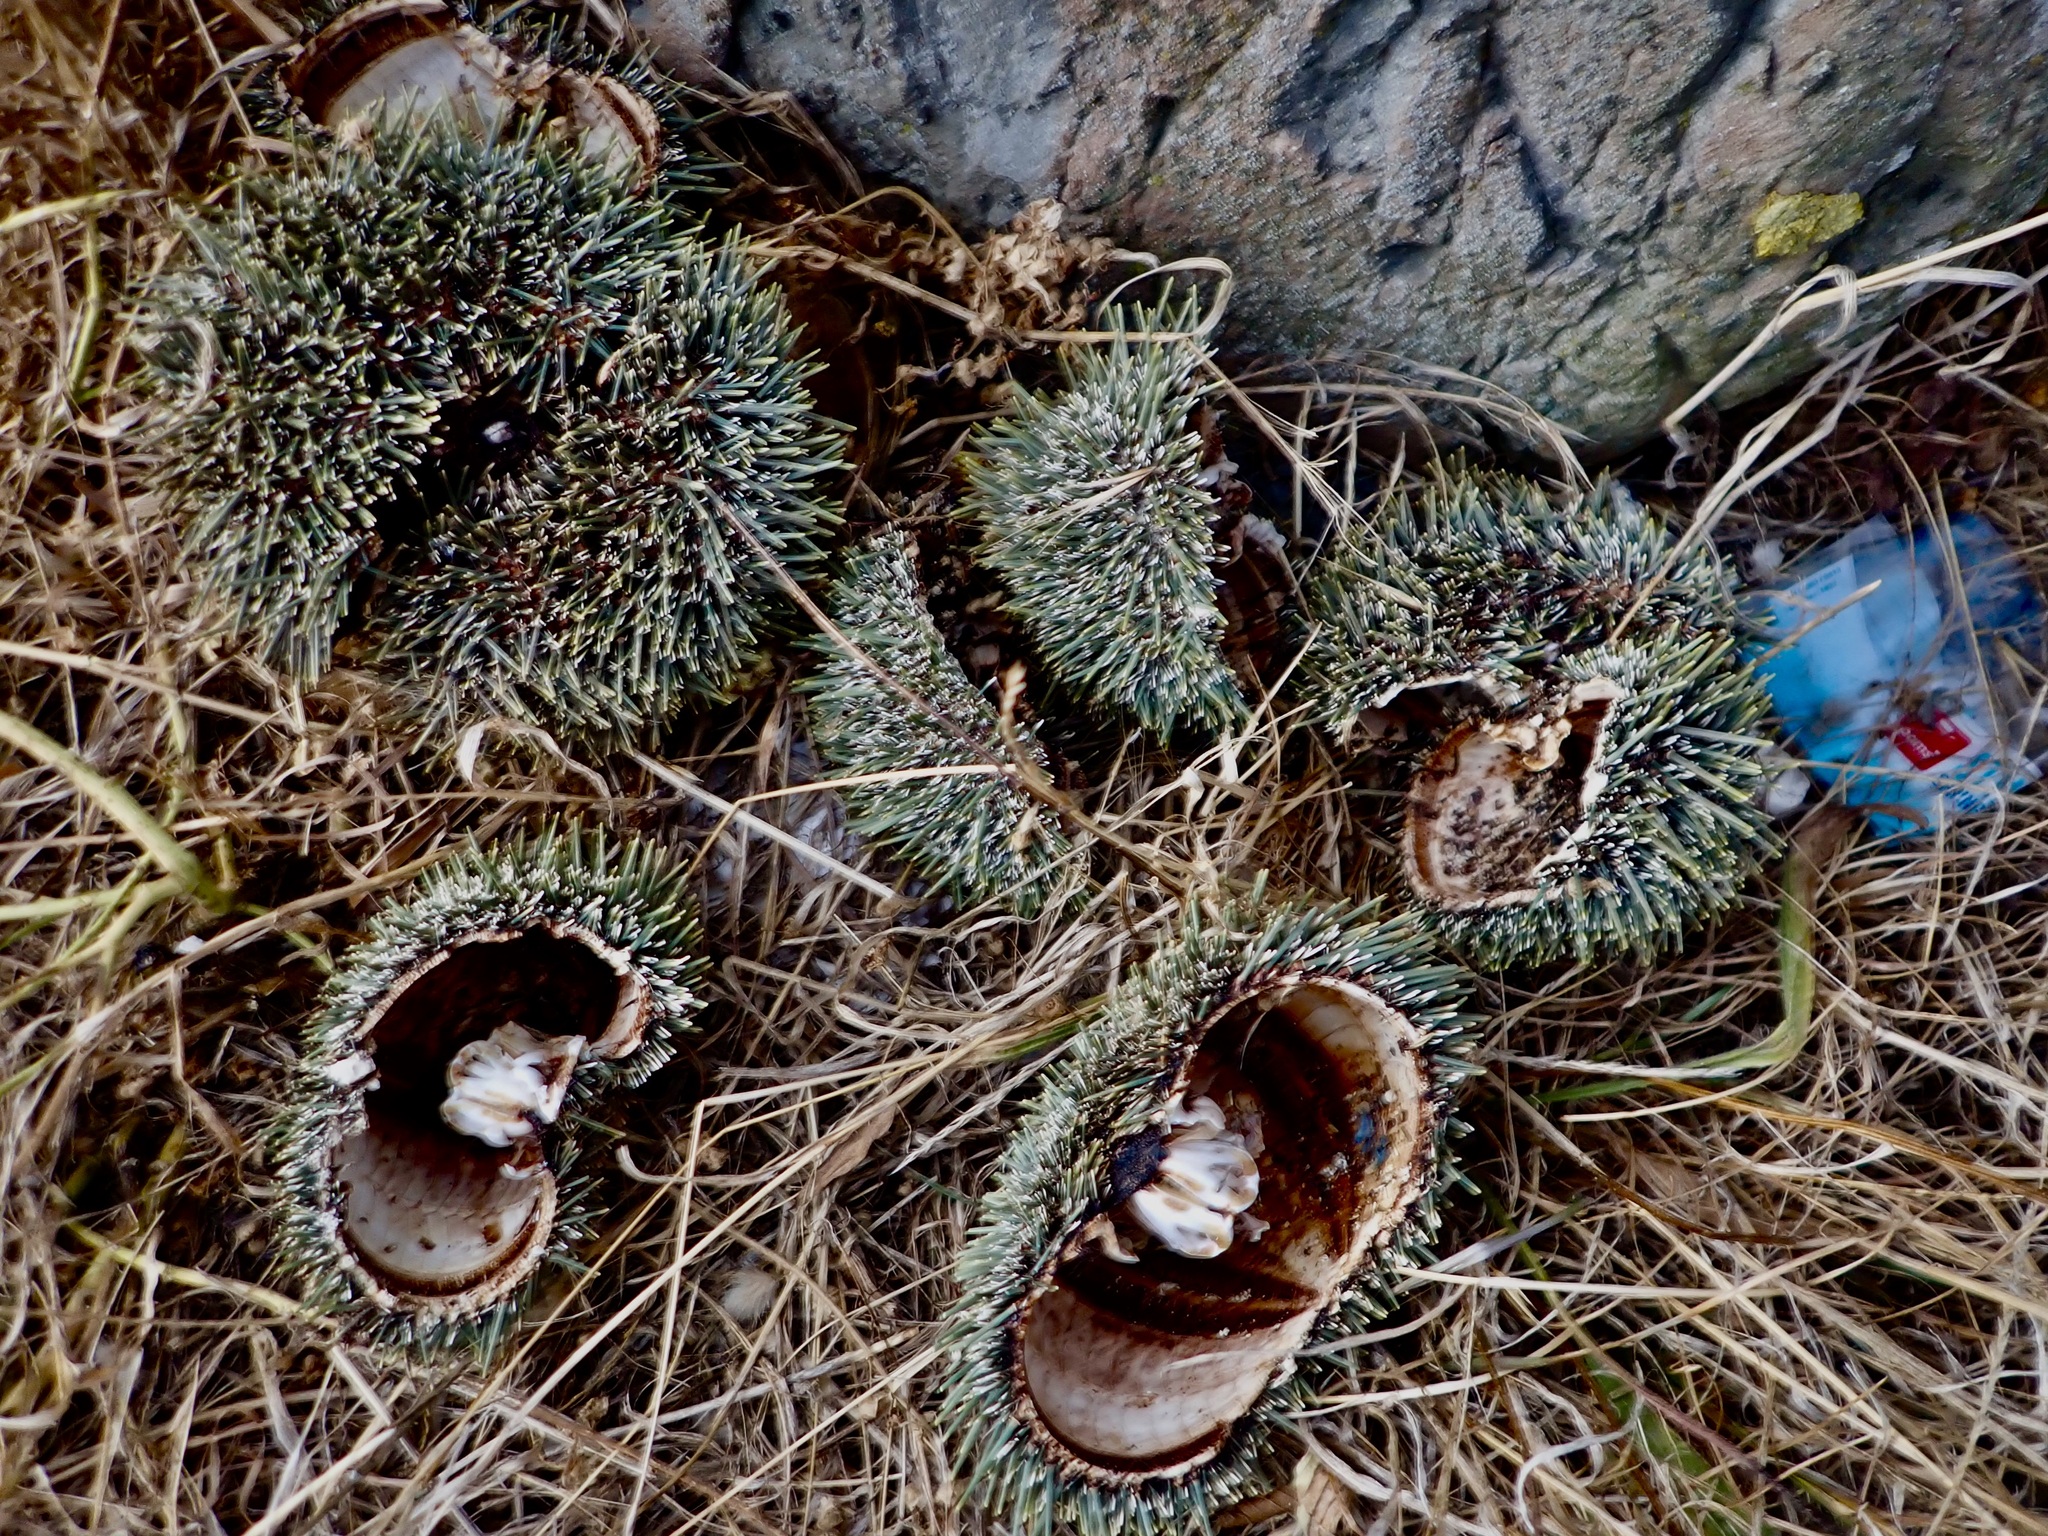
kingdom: Animalia
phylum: Echinodermata
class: Echinoidea
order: Camarodonta
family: Echinometridae
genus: Evechinus
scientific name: Evechinus chloroticus
